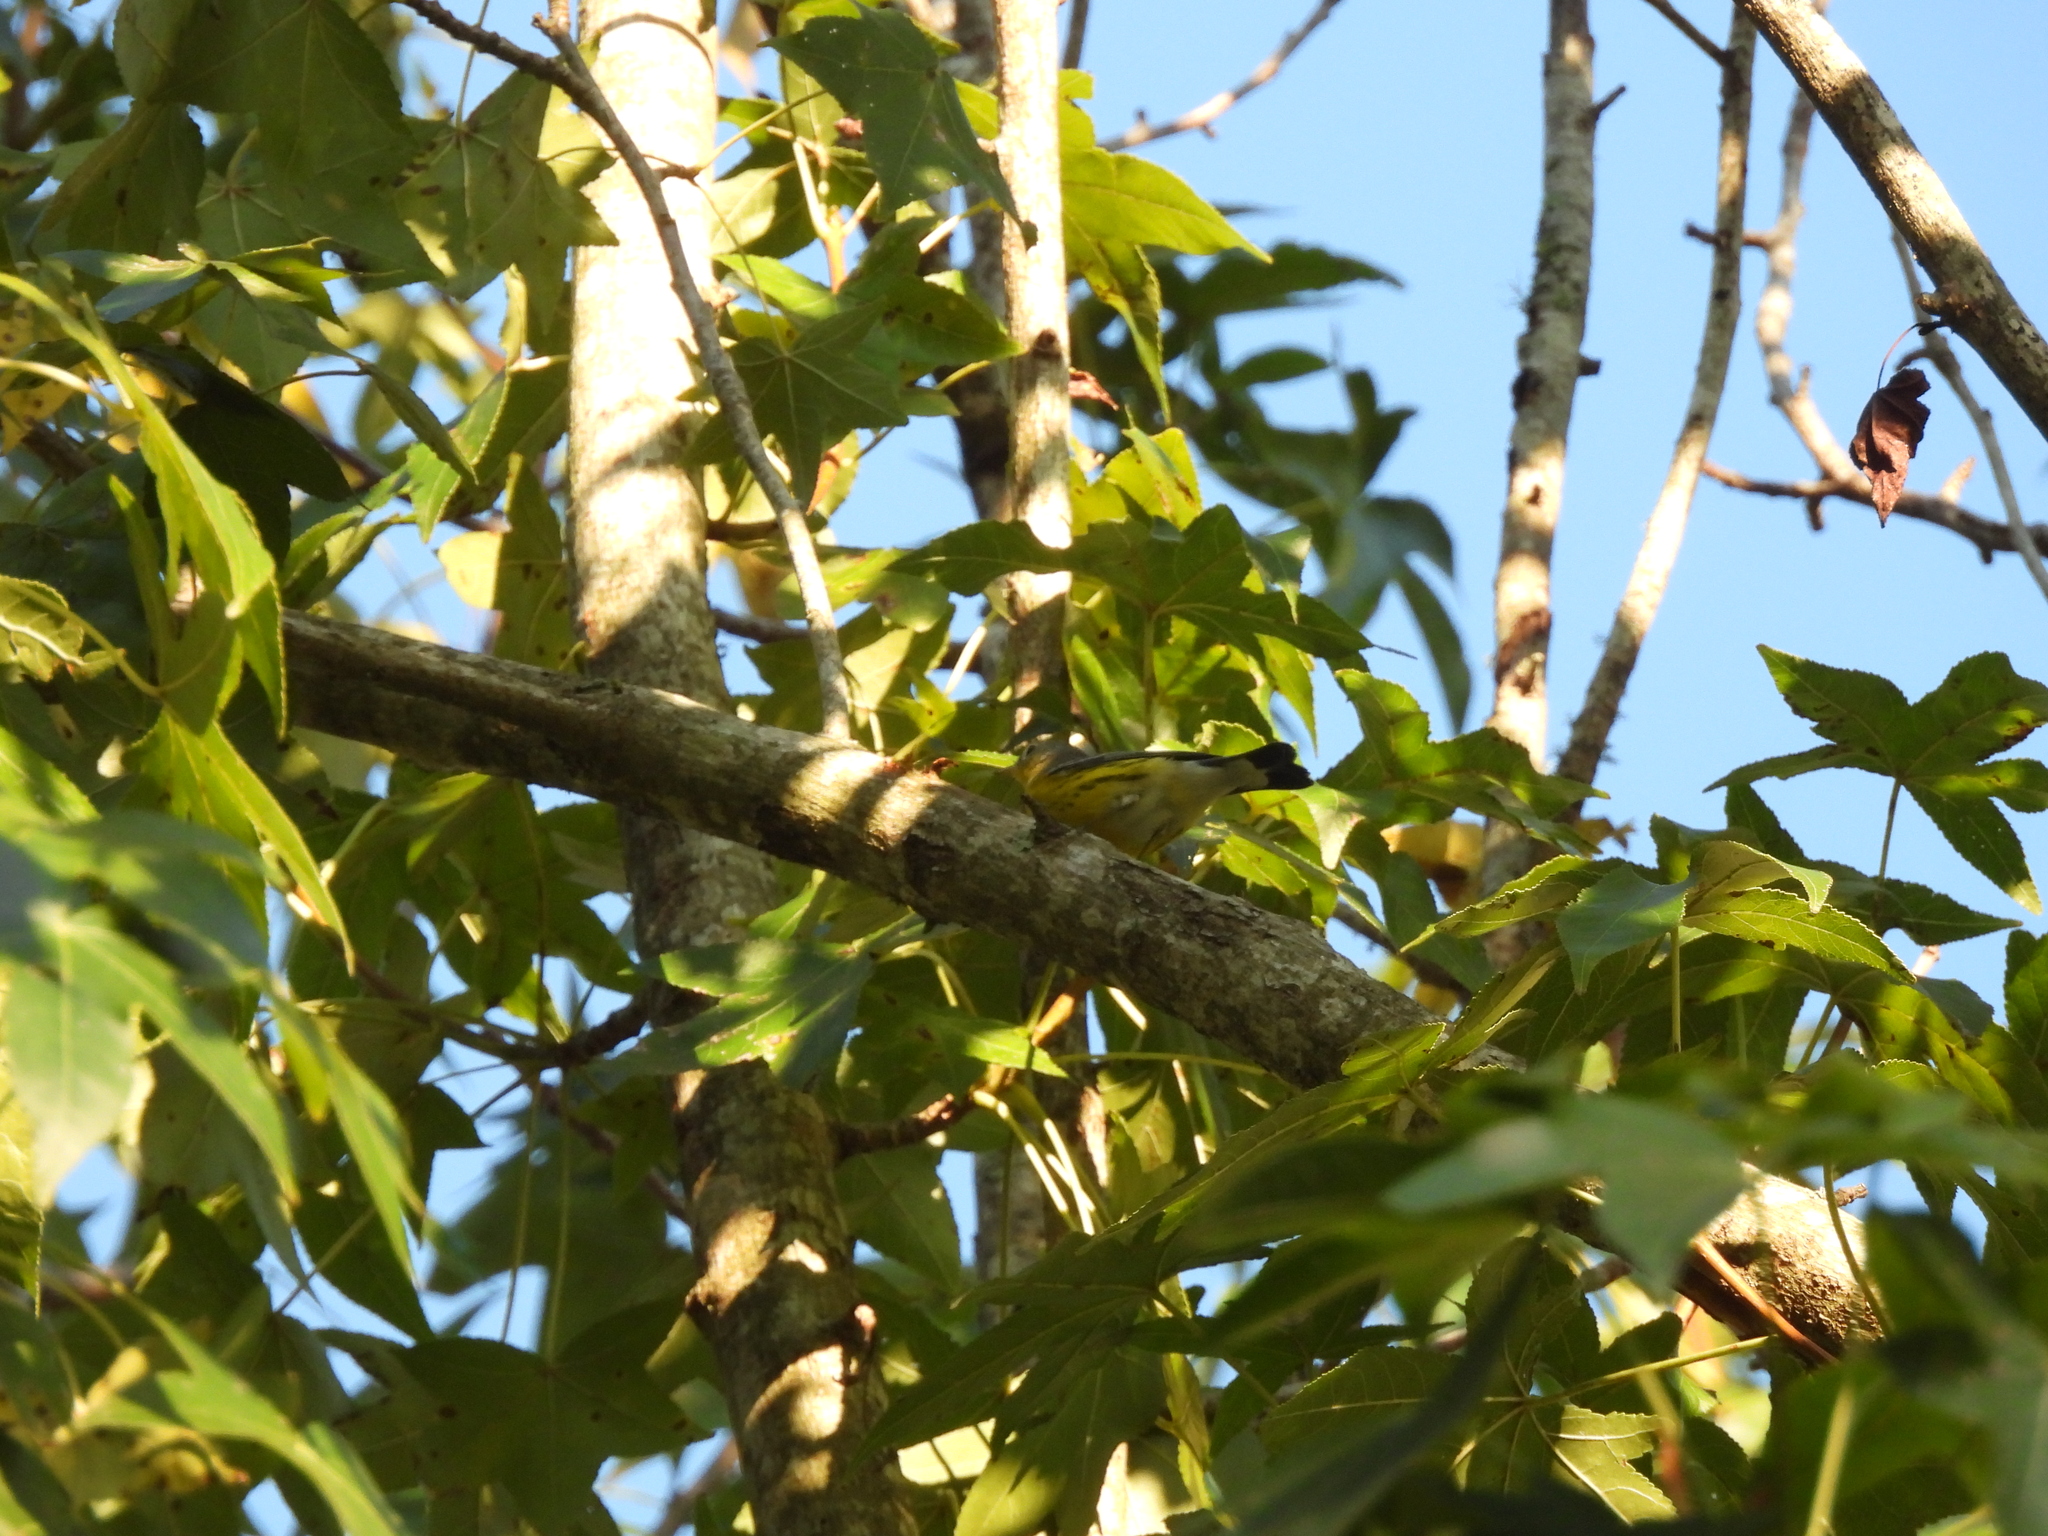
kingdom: Animalia
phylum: Chordata
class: Aves
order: Passeriformes
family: Parulidae
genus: Setophaga
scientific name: Setophaga magnolia
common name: Magnolia warbler
